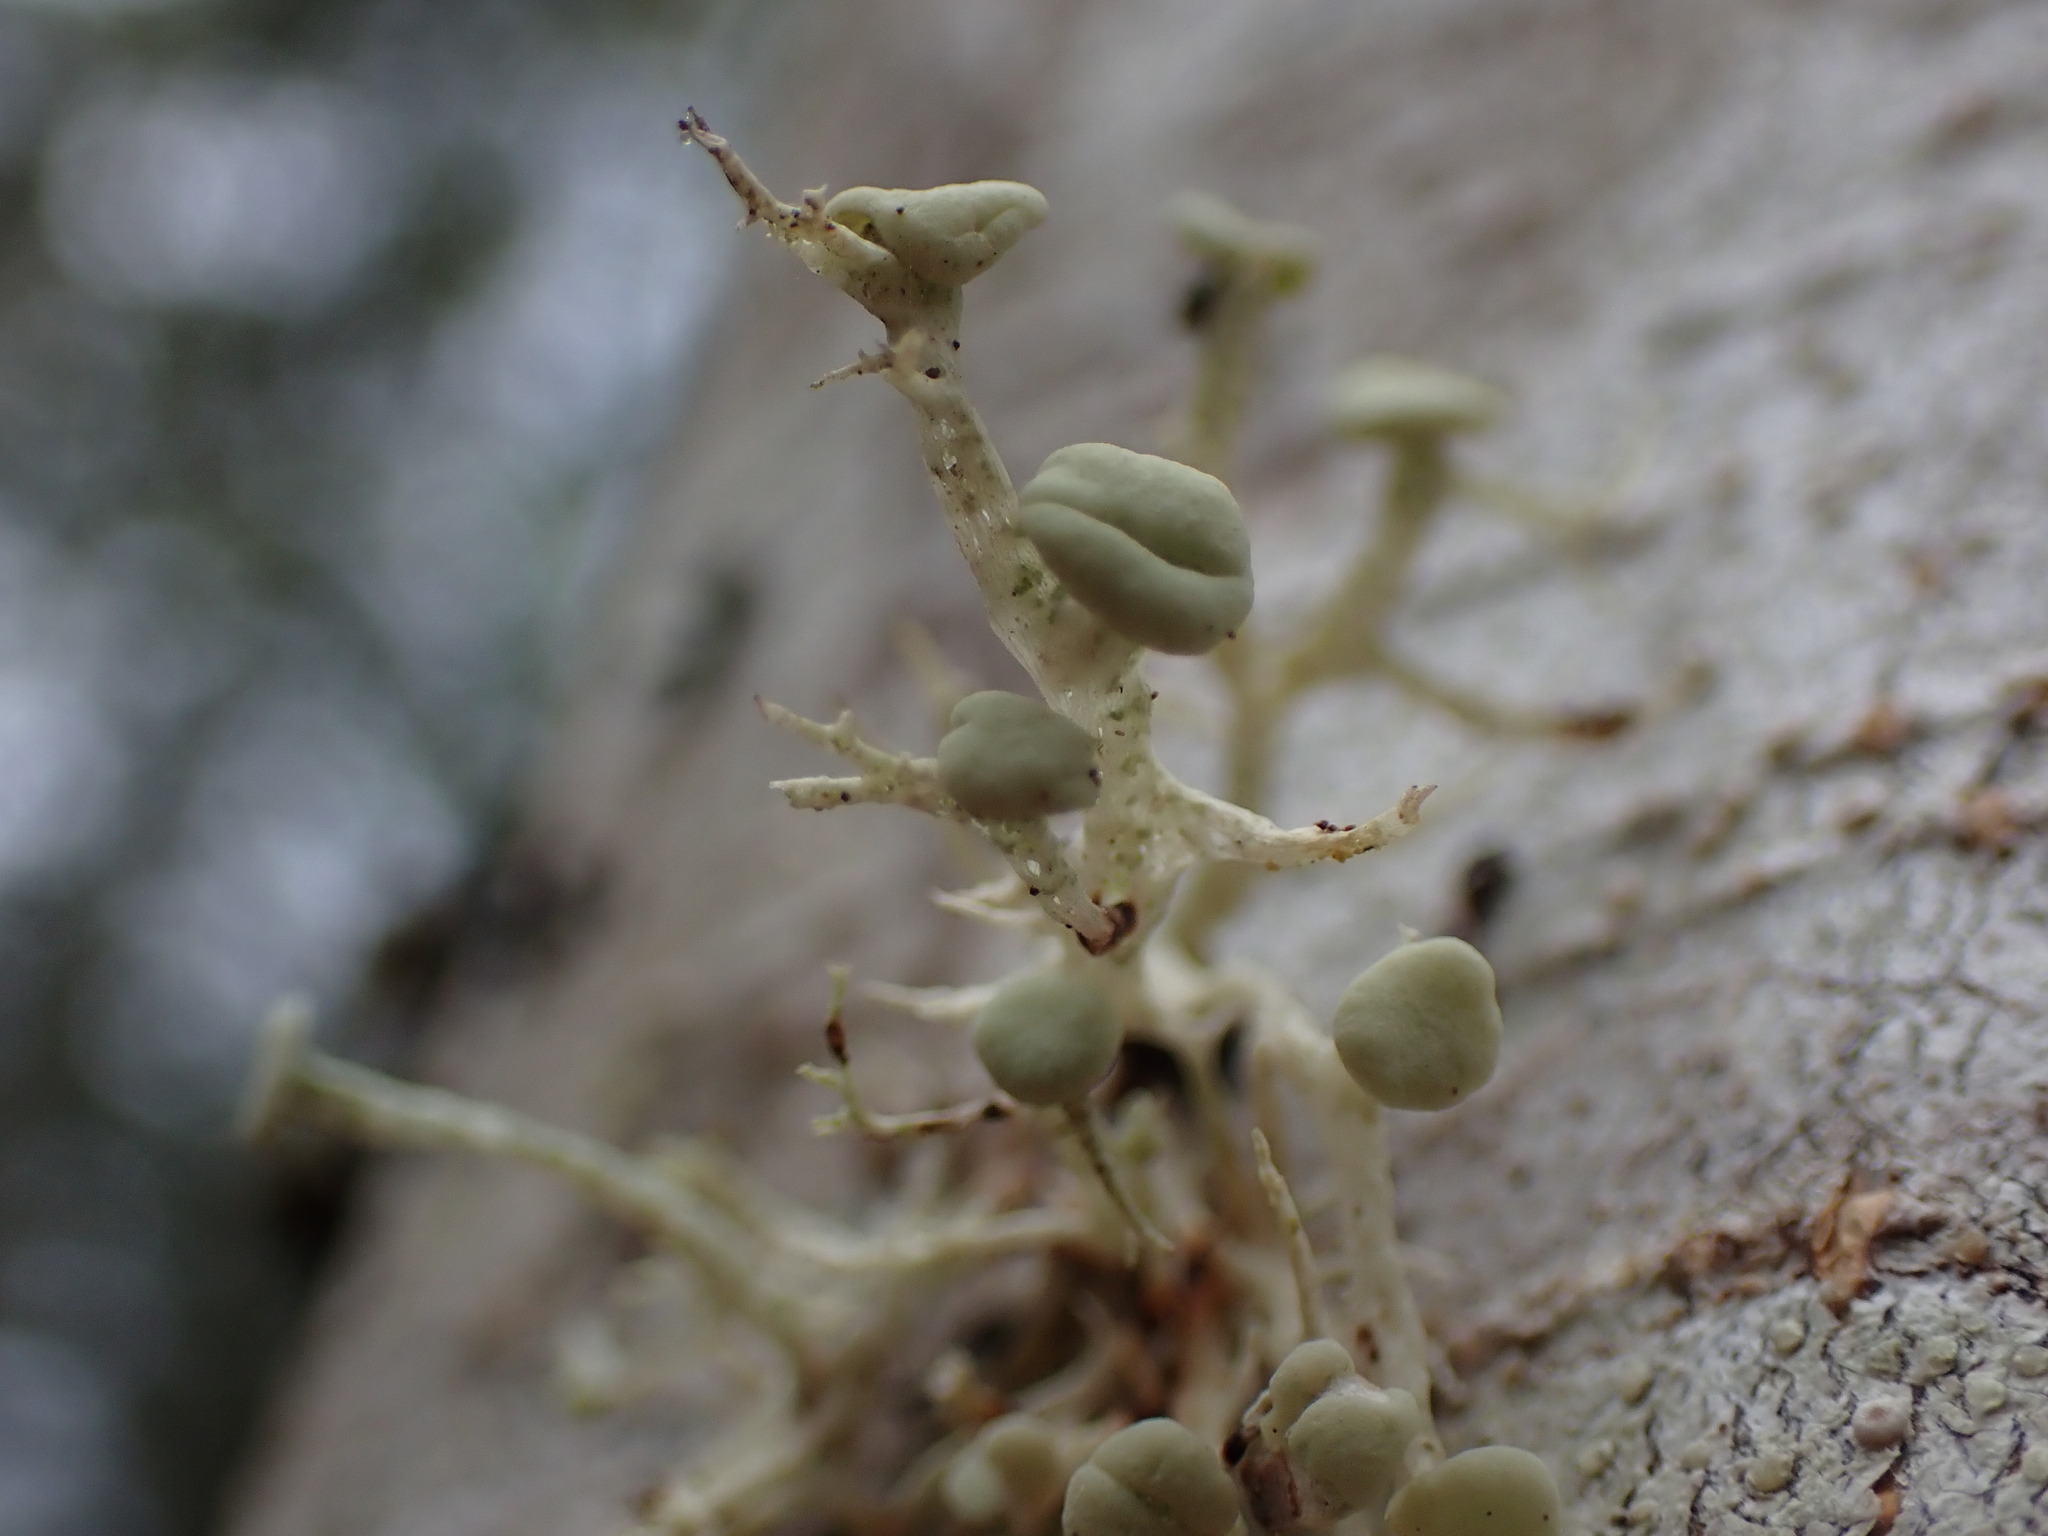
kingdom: Fungi
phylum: Ascomycota
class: Lecanoromycetes
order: Lecanorales
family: Ramalinaceae
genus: Ramalina
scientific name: Ramalina dilacerata
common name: Punctured bushy lichen
